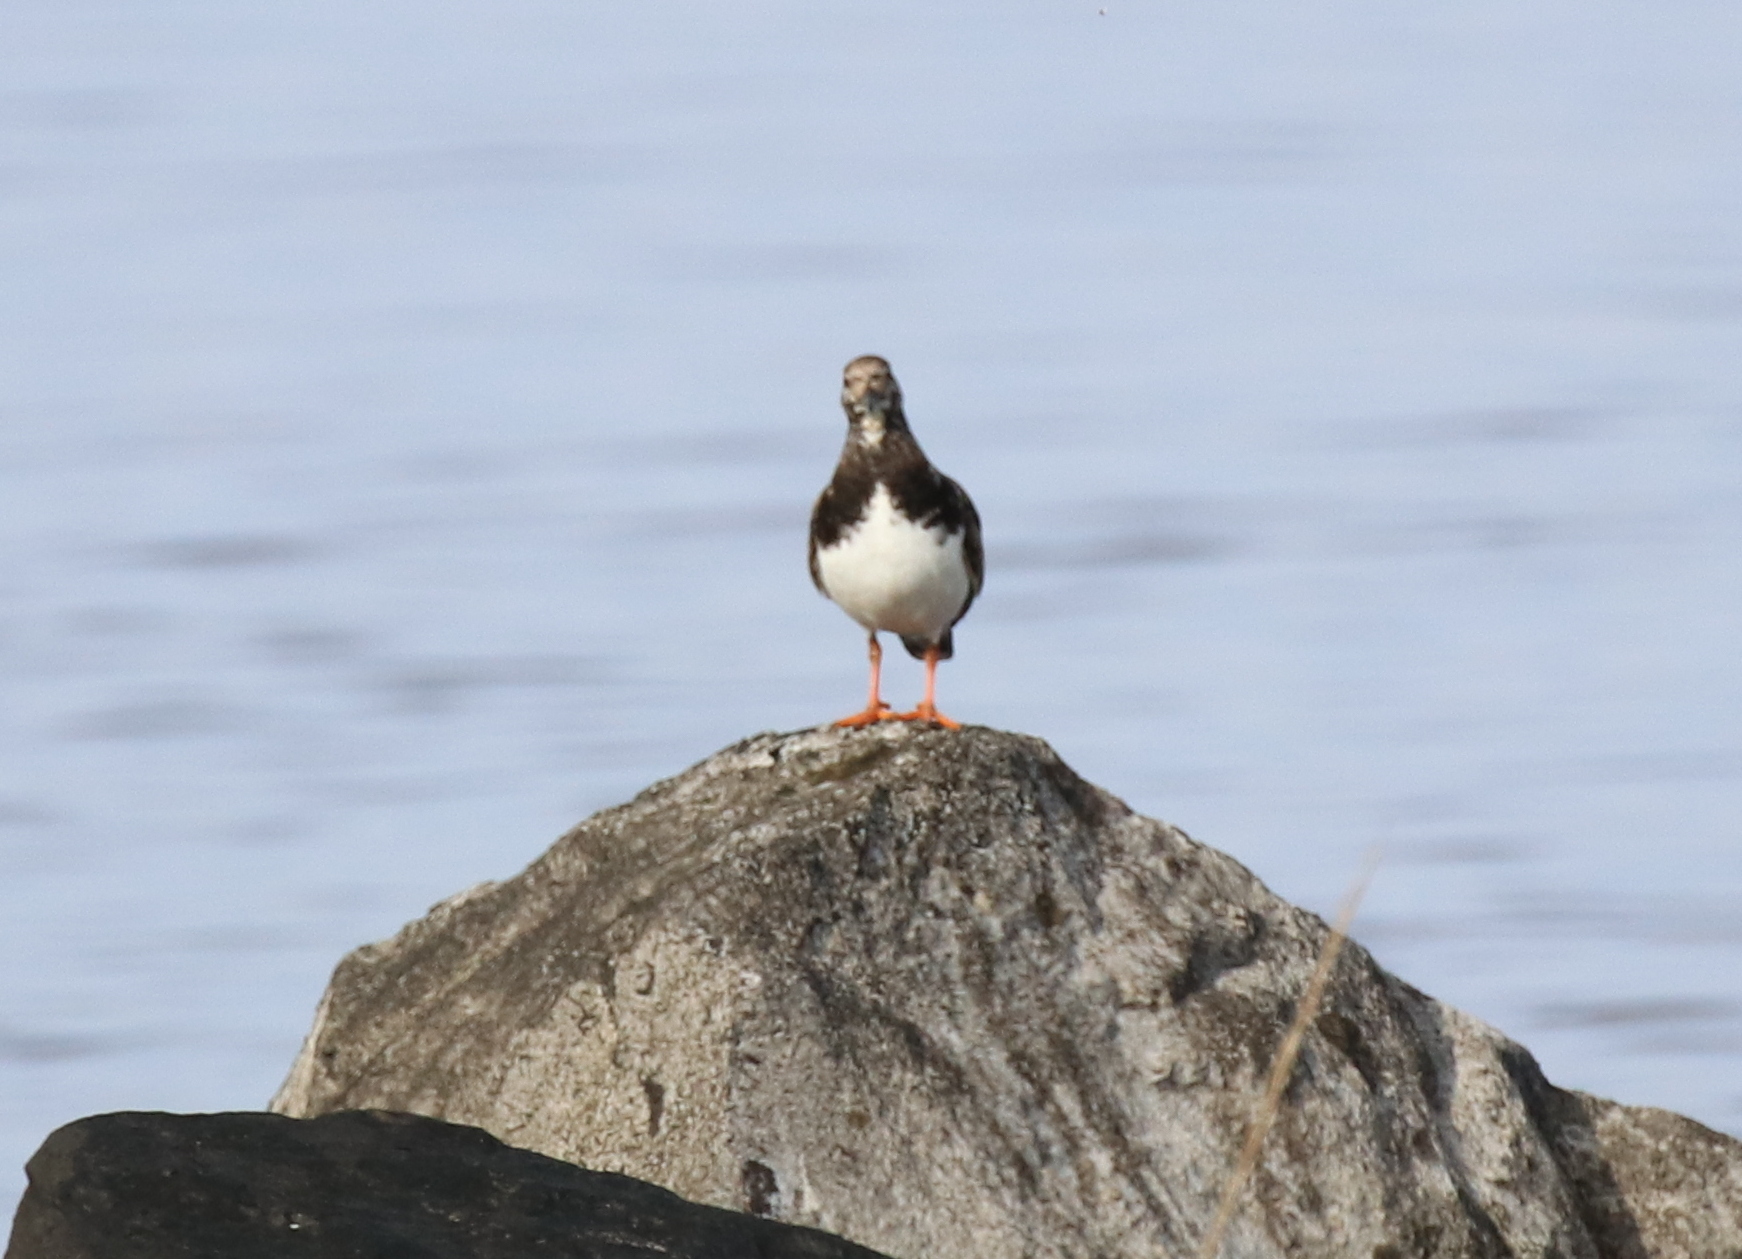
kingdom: Animalia
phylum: Chordata
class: Aves
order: Charadriiformes
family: Scolopacidae
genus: Arenaria
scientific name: Arenaria interpres
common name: Ruddy turnstone
